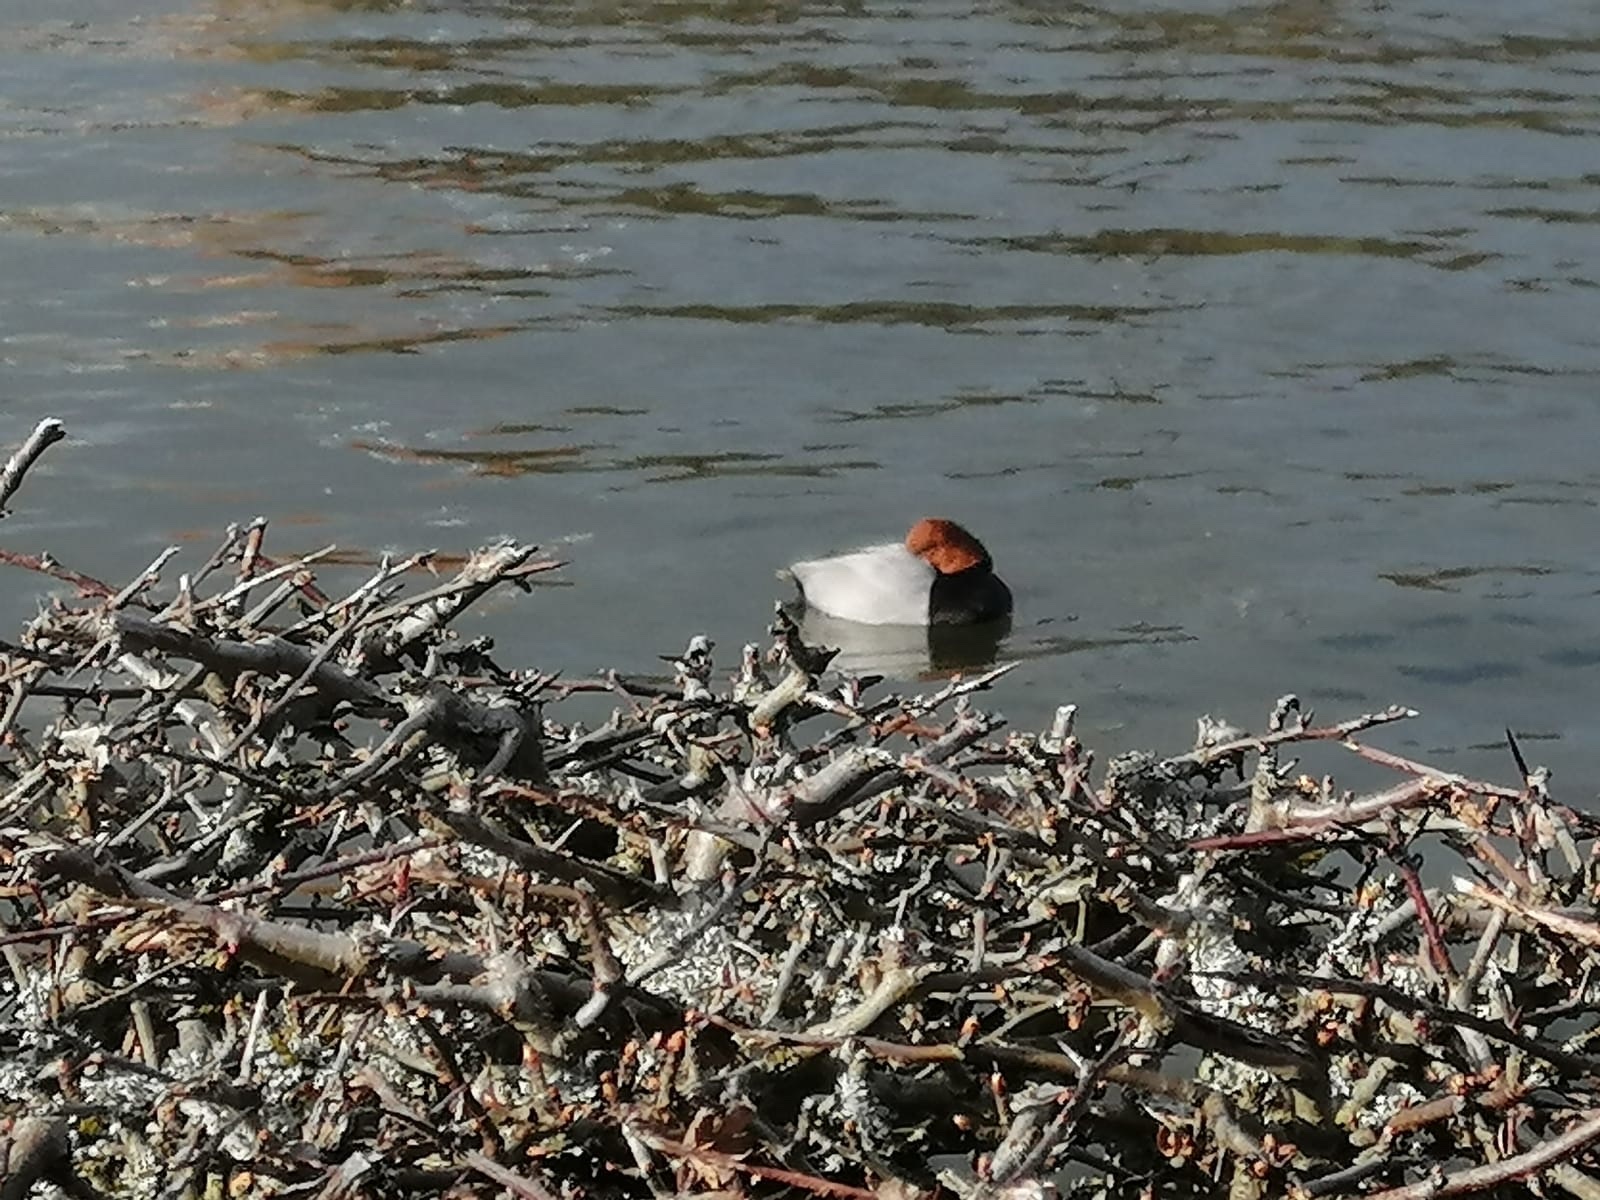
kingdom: Animalia
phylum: Chordata
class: Aves
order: Anseriformes
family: Anatidae
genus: Aythya
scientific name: Aythya ferina
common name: Common pochard
